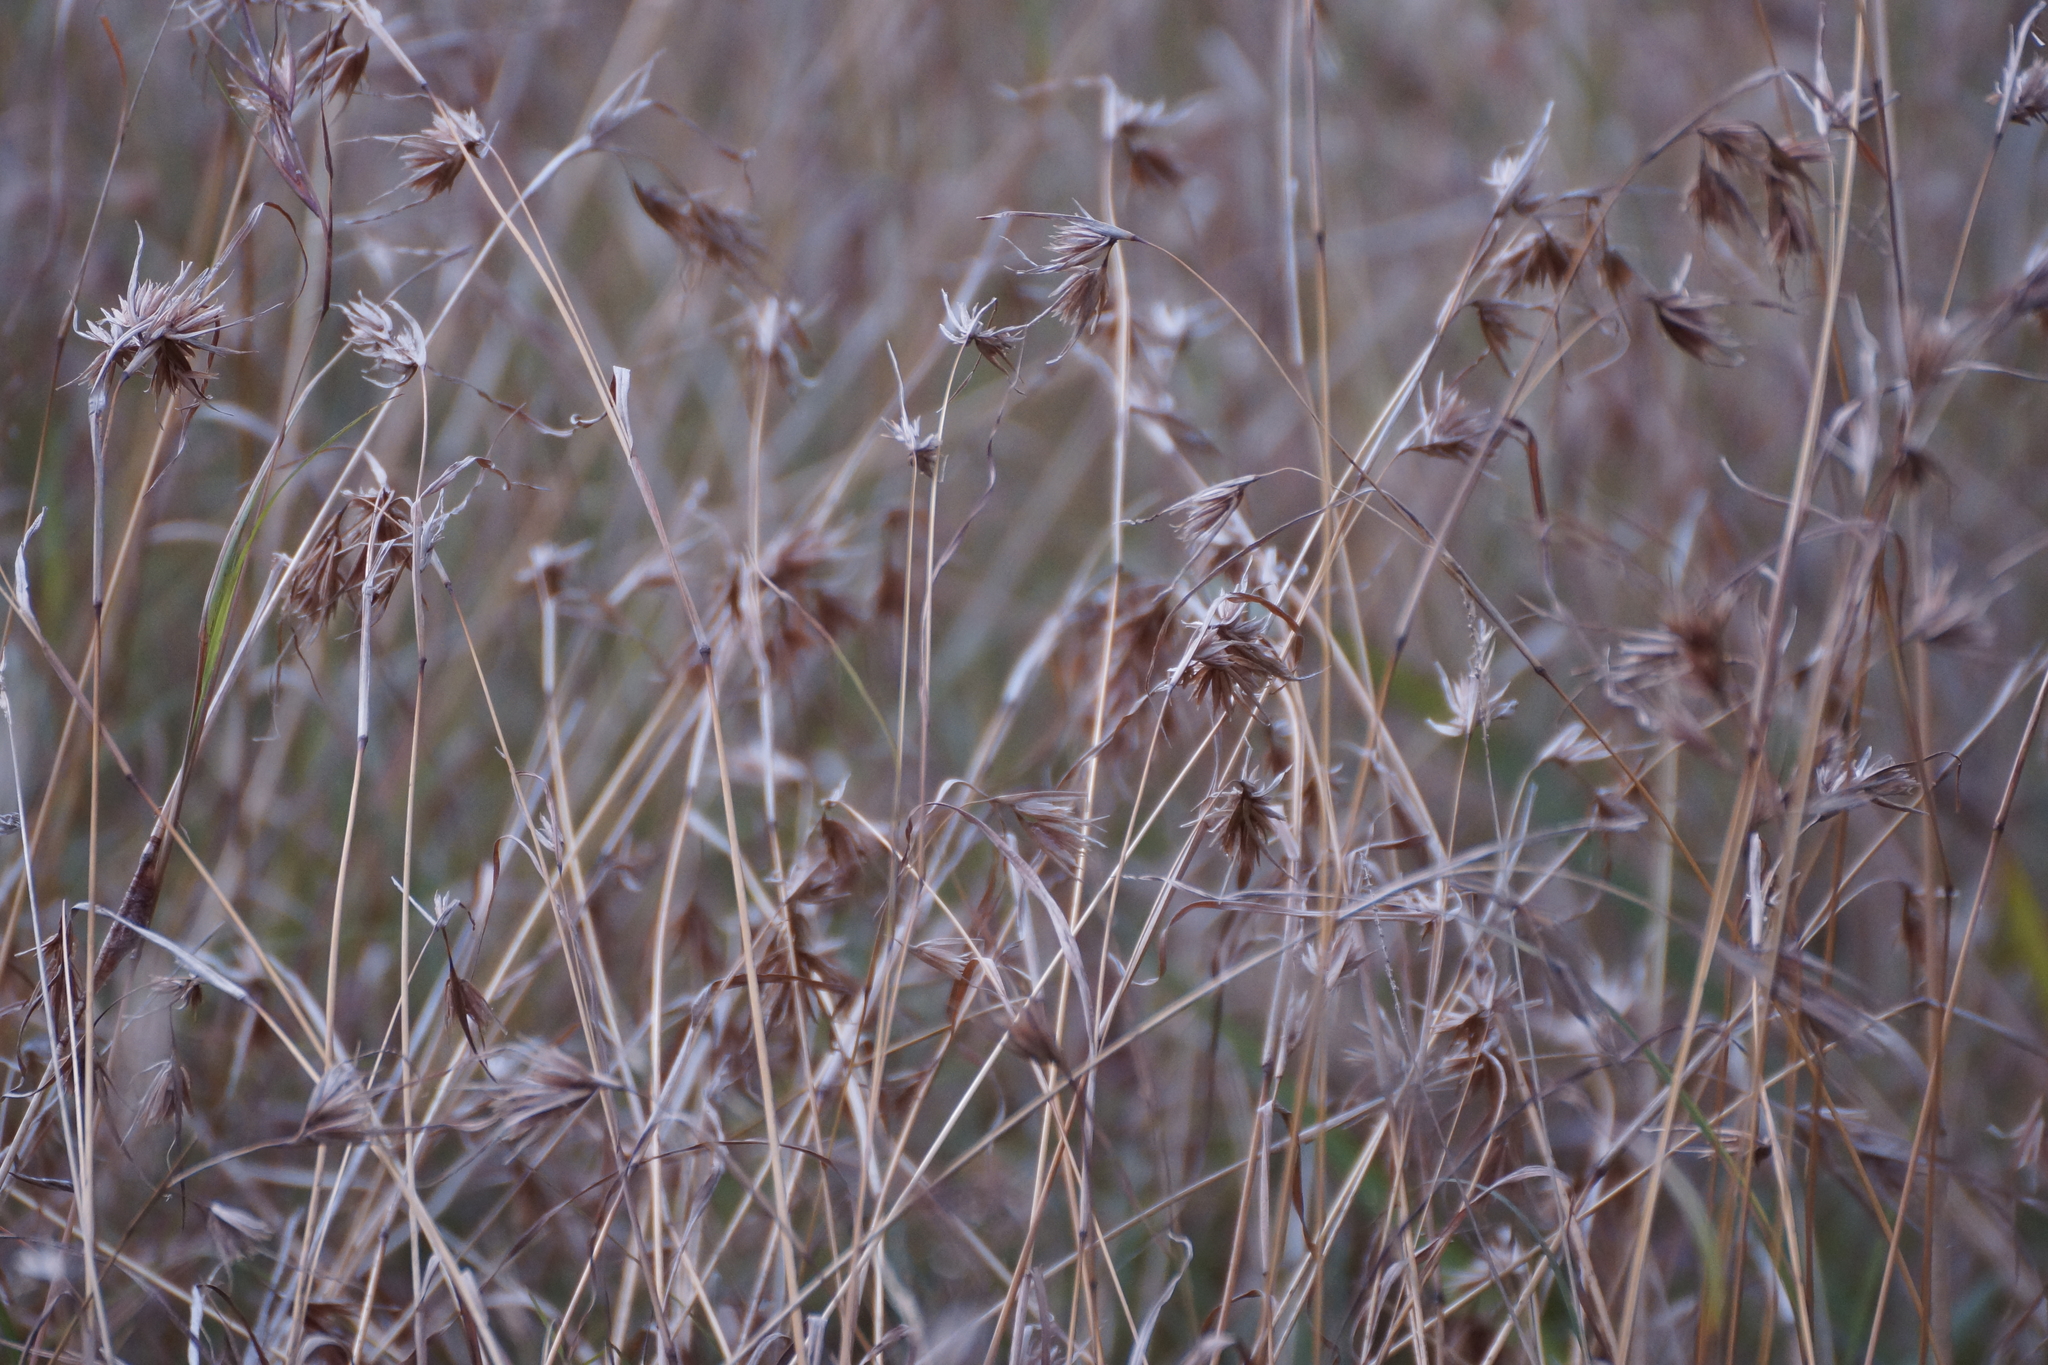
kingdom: Plantae
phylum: Tracheophyta
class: Liliopsida
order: Poales
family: Poaceae
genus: Themeda
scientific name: Themeda triandra
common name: Kangaroo grass
